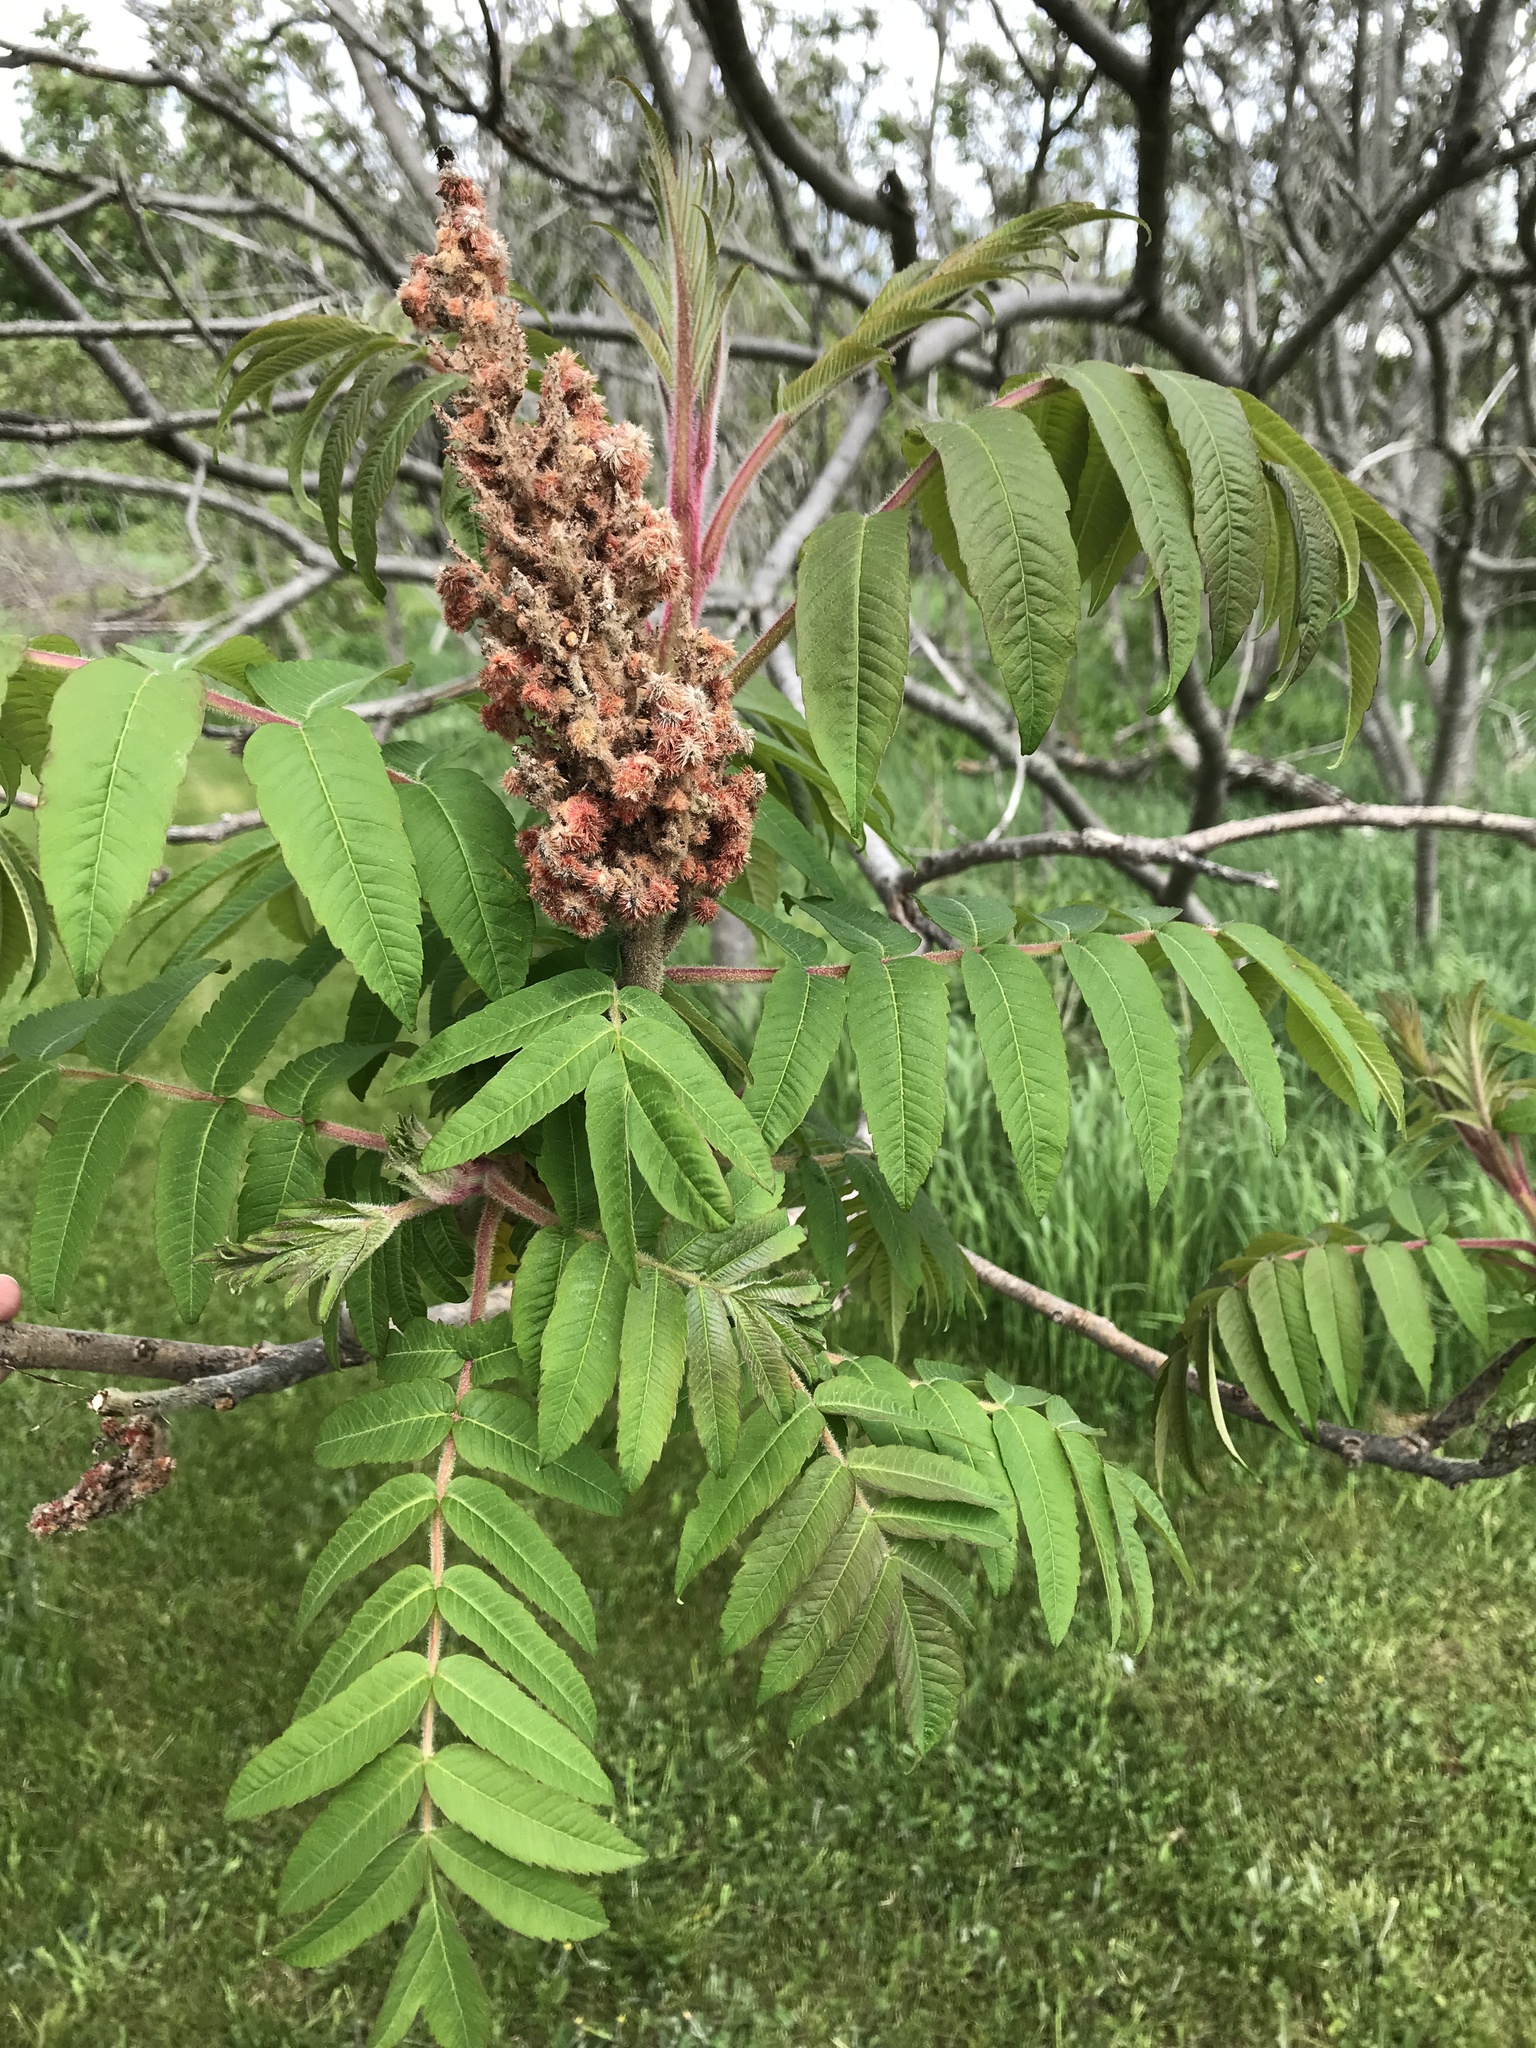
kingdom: Plantae
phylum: Tracheophyta
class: Magnoliopsida
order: Sapindales
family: Anacardiaceae
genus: Rhus
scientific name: Rhus typhina
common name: Staghorn sumac
